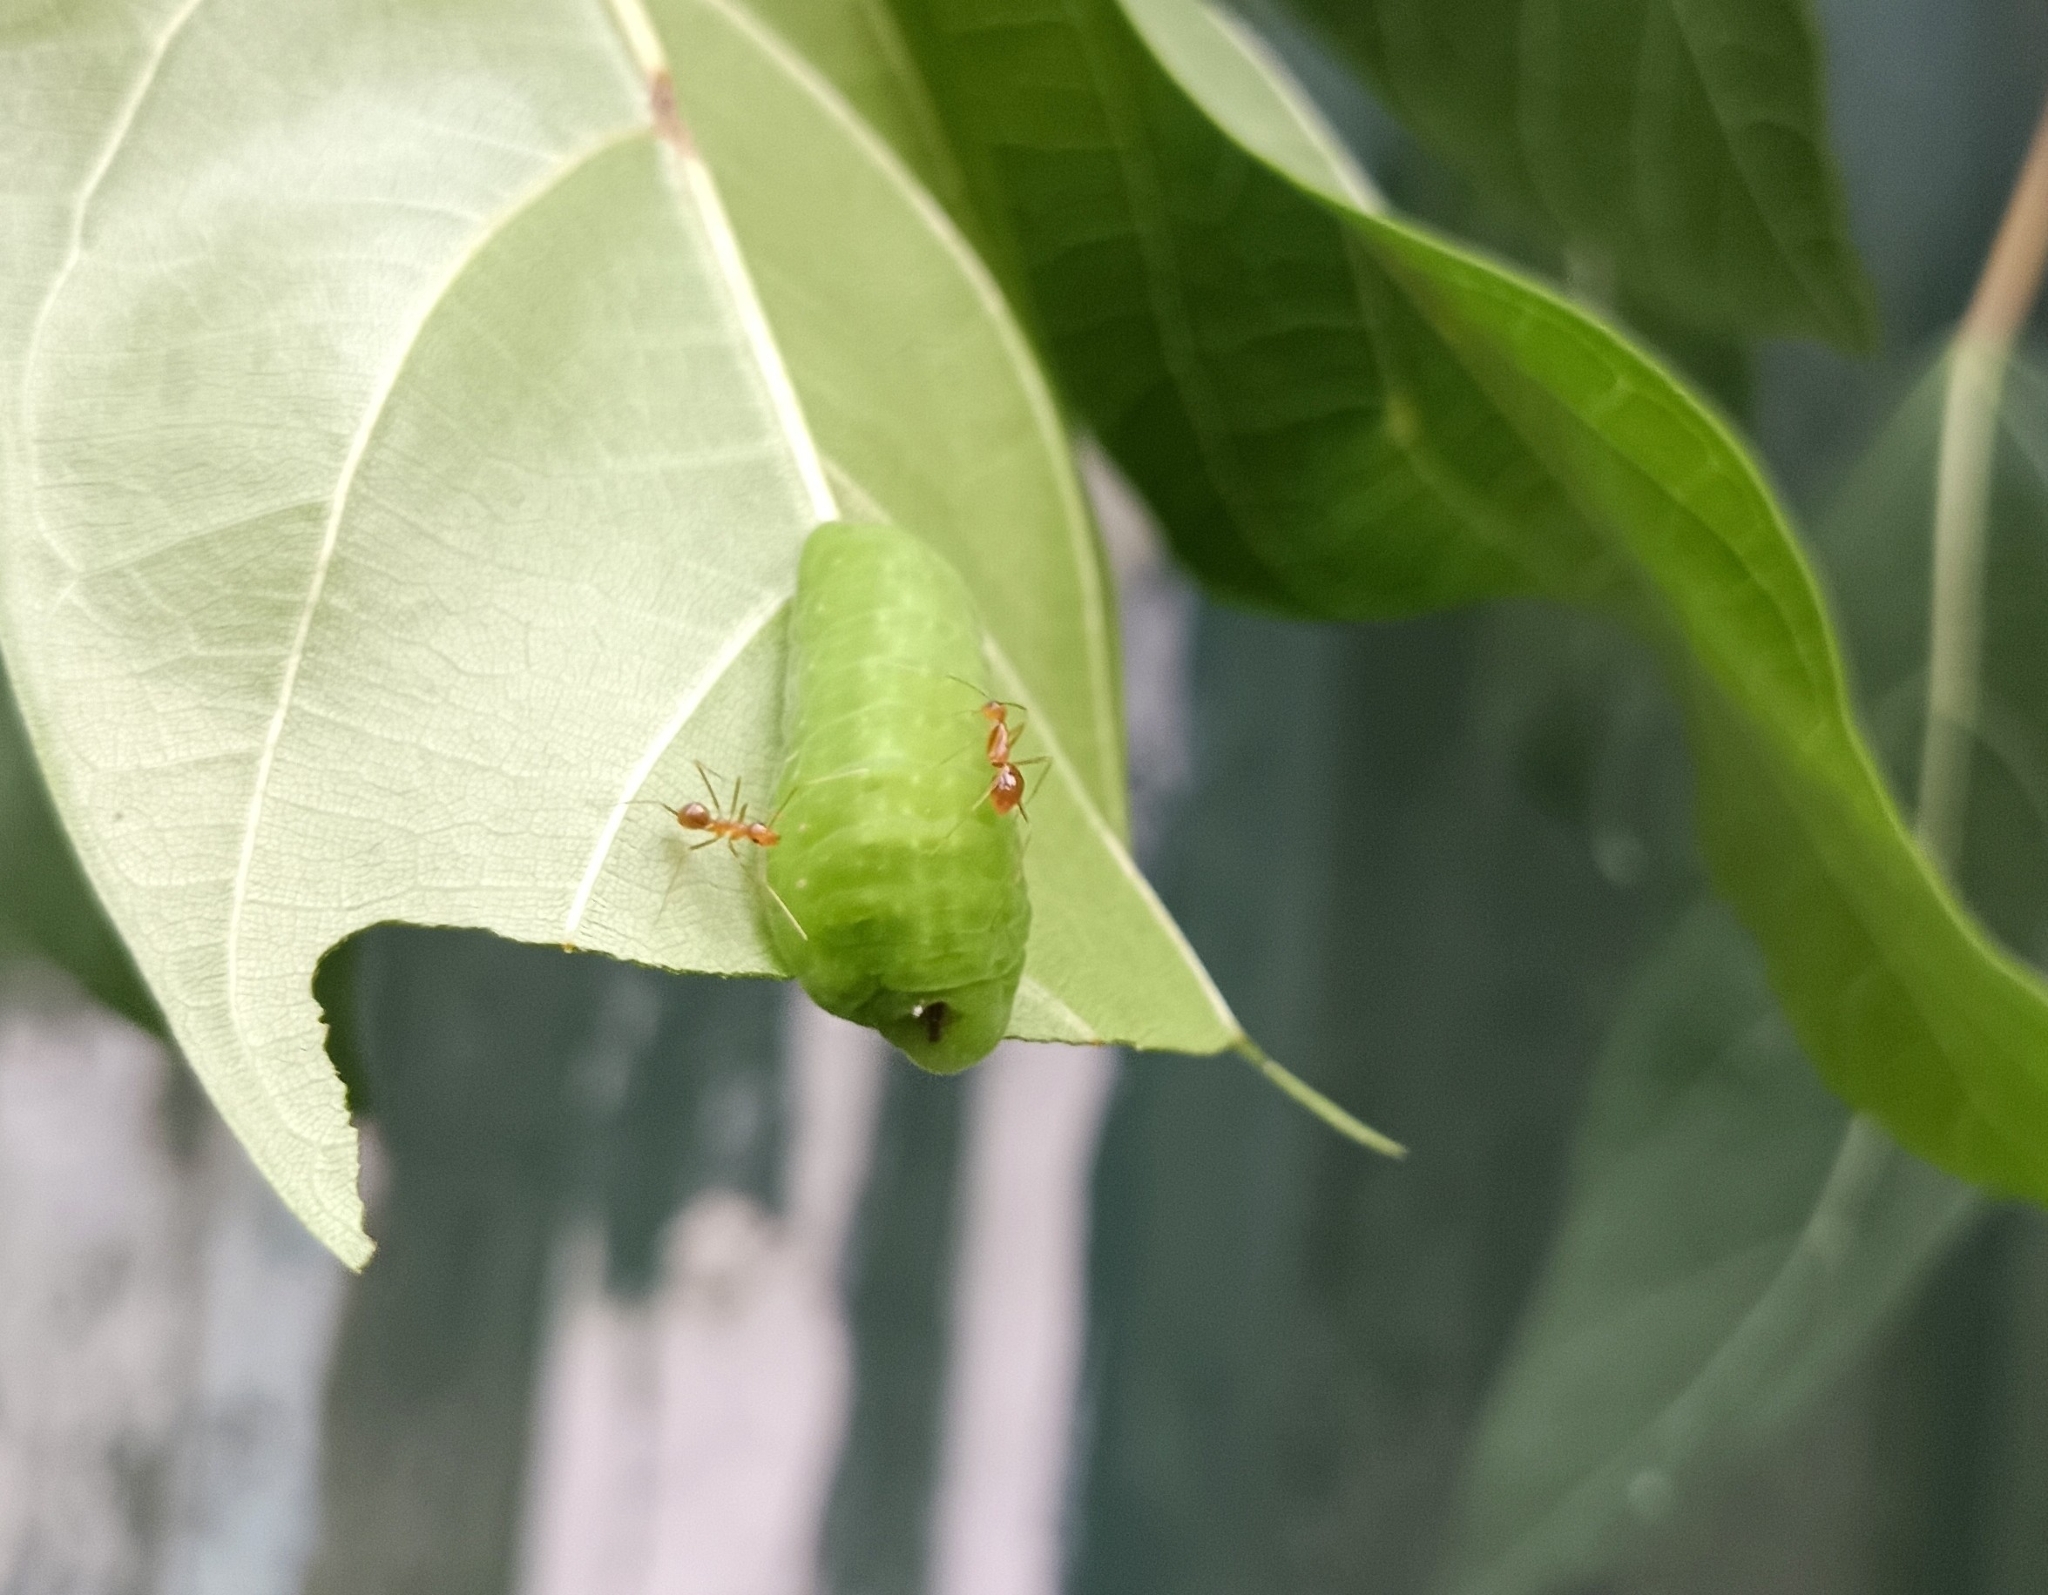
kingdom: Animalia
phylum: Arthropoda
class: Insecta
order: Lepidoptera
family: Lycaenidae
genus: Iraota
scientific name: Iraota timoleon
